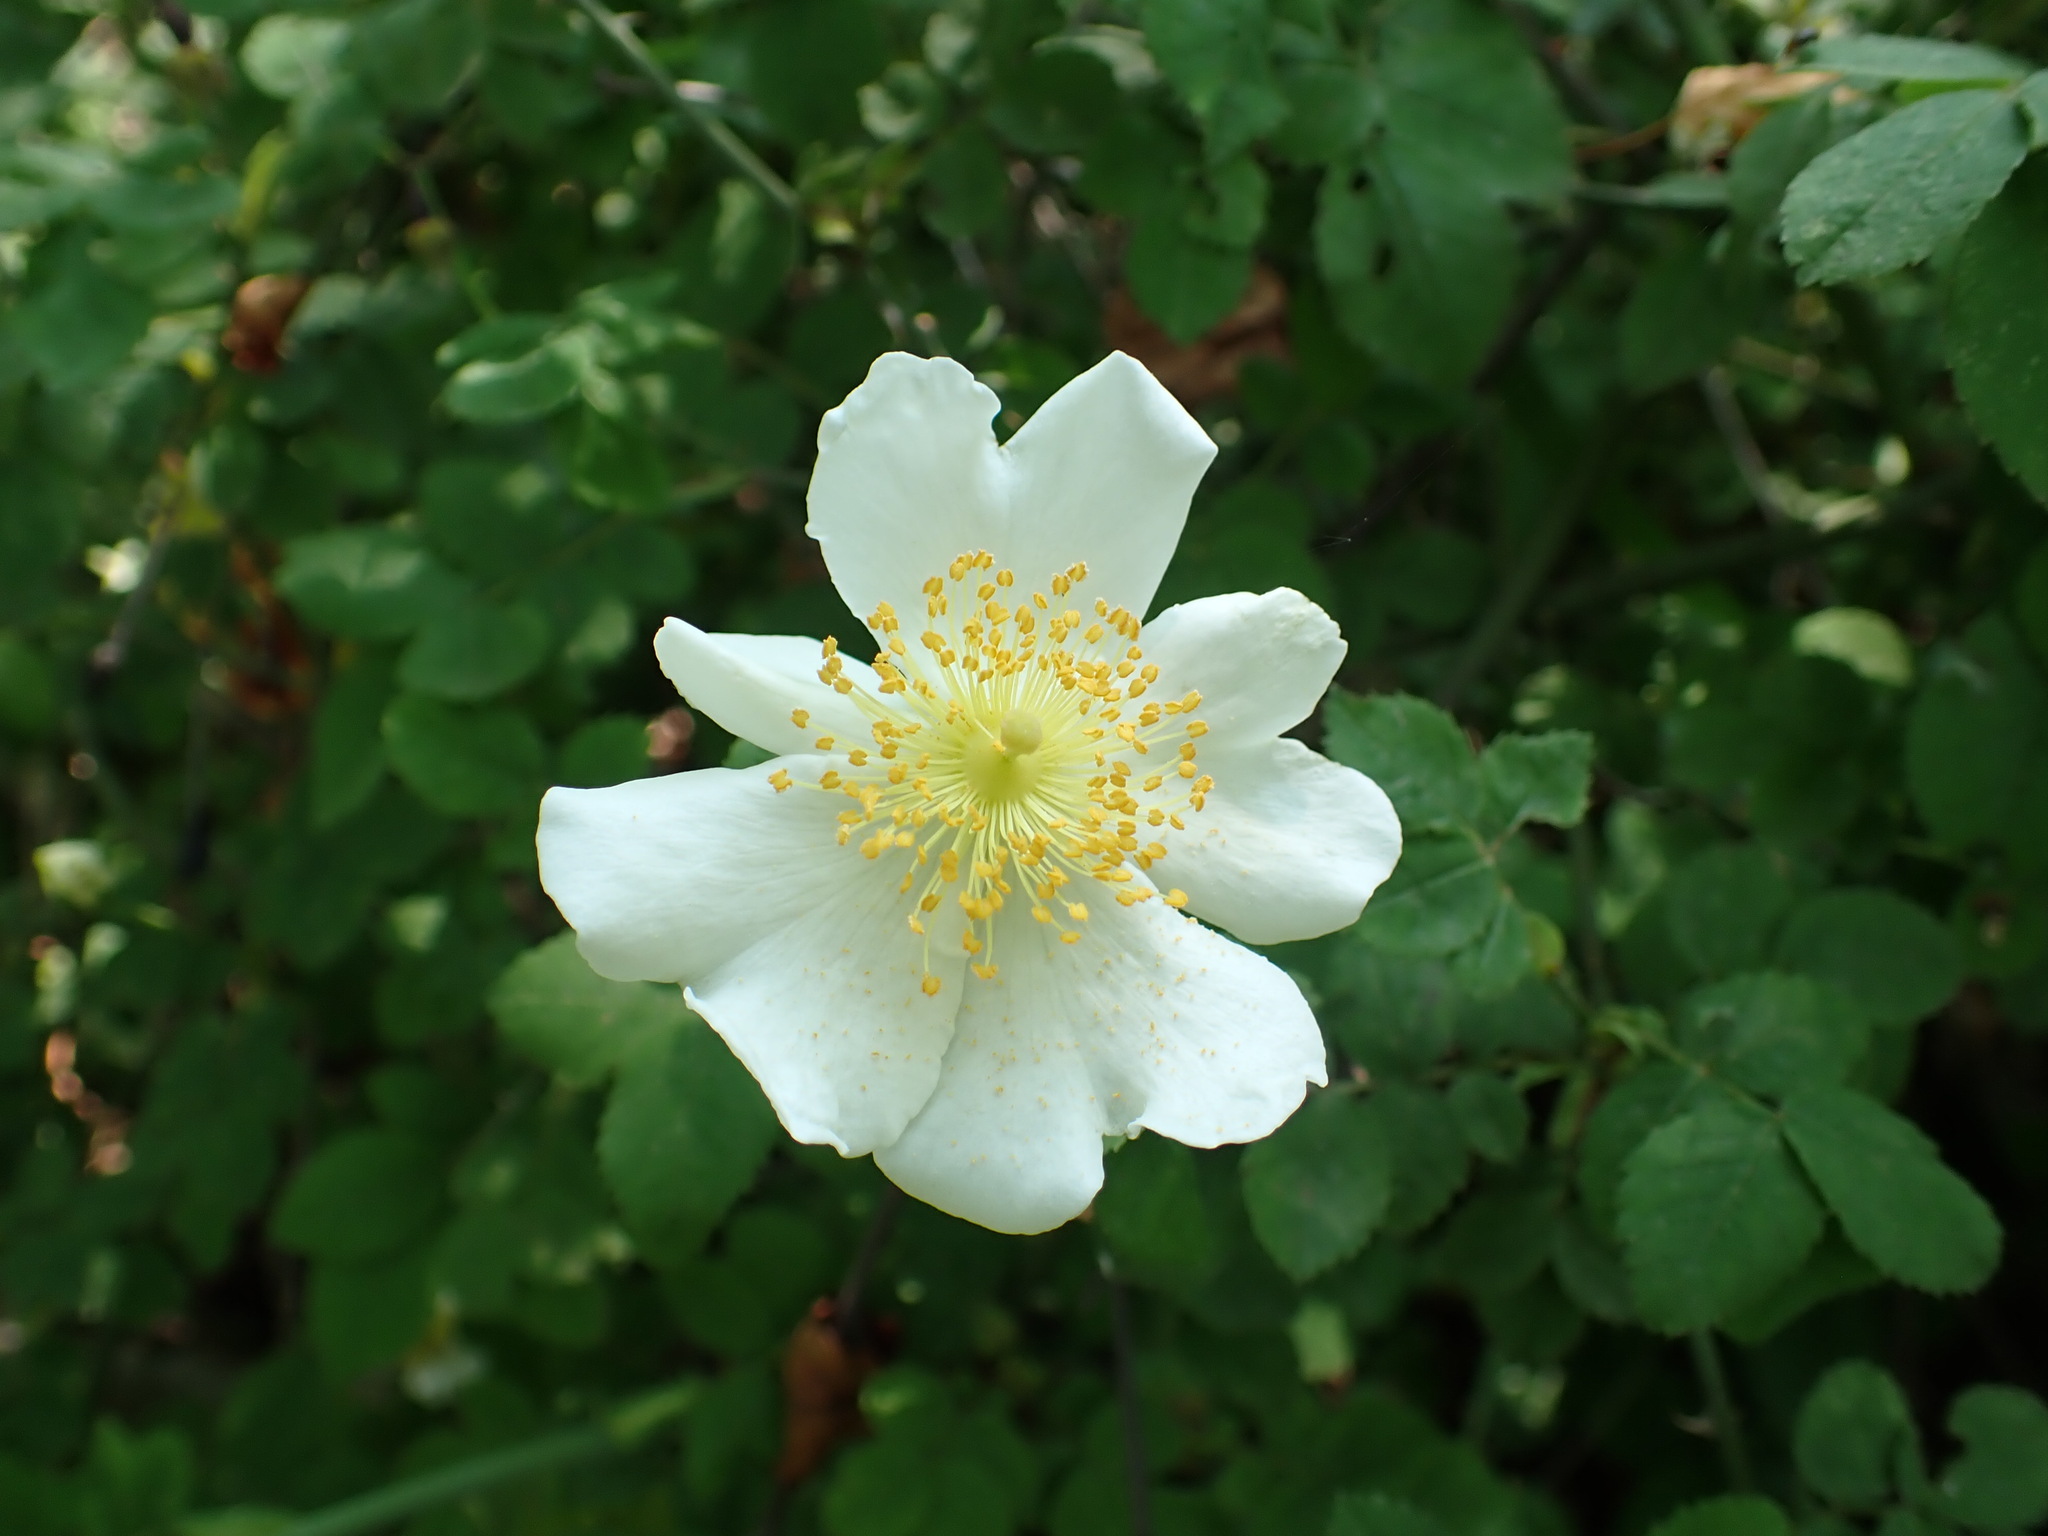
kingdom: Plantae
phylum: Tracheophyta
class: Magnoliopsida
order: Rosales
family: Rosaceae
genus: Rosa
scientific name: Rosa arvensis
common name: Field rose
